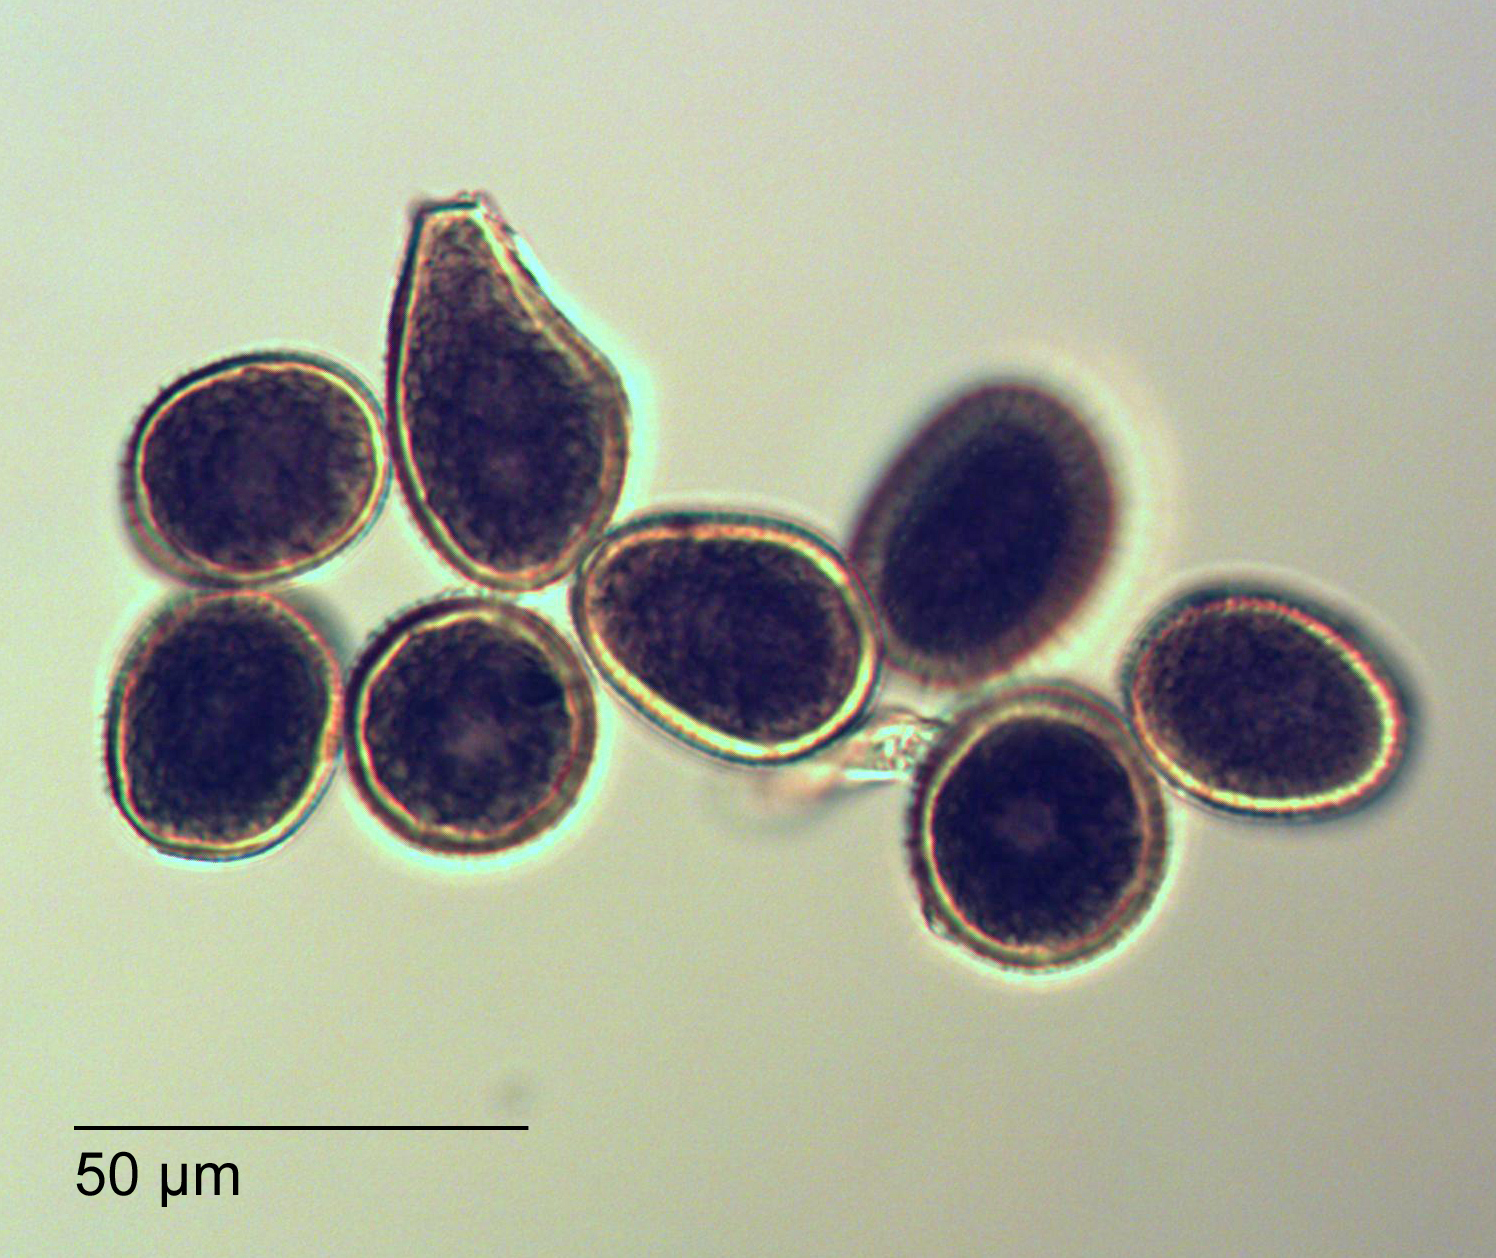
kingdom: Fungi
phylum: Basidiomycota
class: Pucciniomycetes
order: Pucciniales
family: Pucciniaceae
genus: Aecidium
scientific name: Aecidium celmisiae-discoloris
